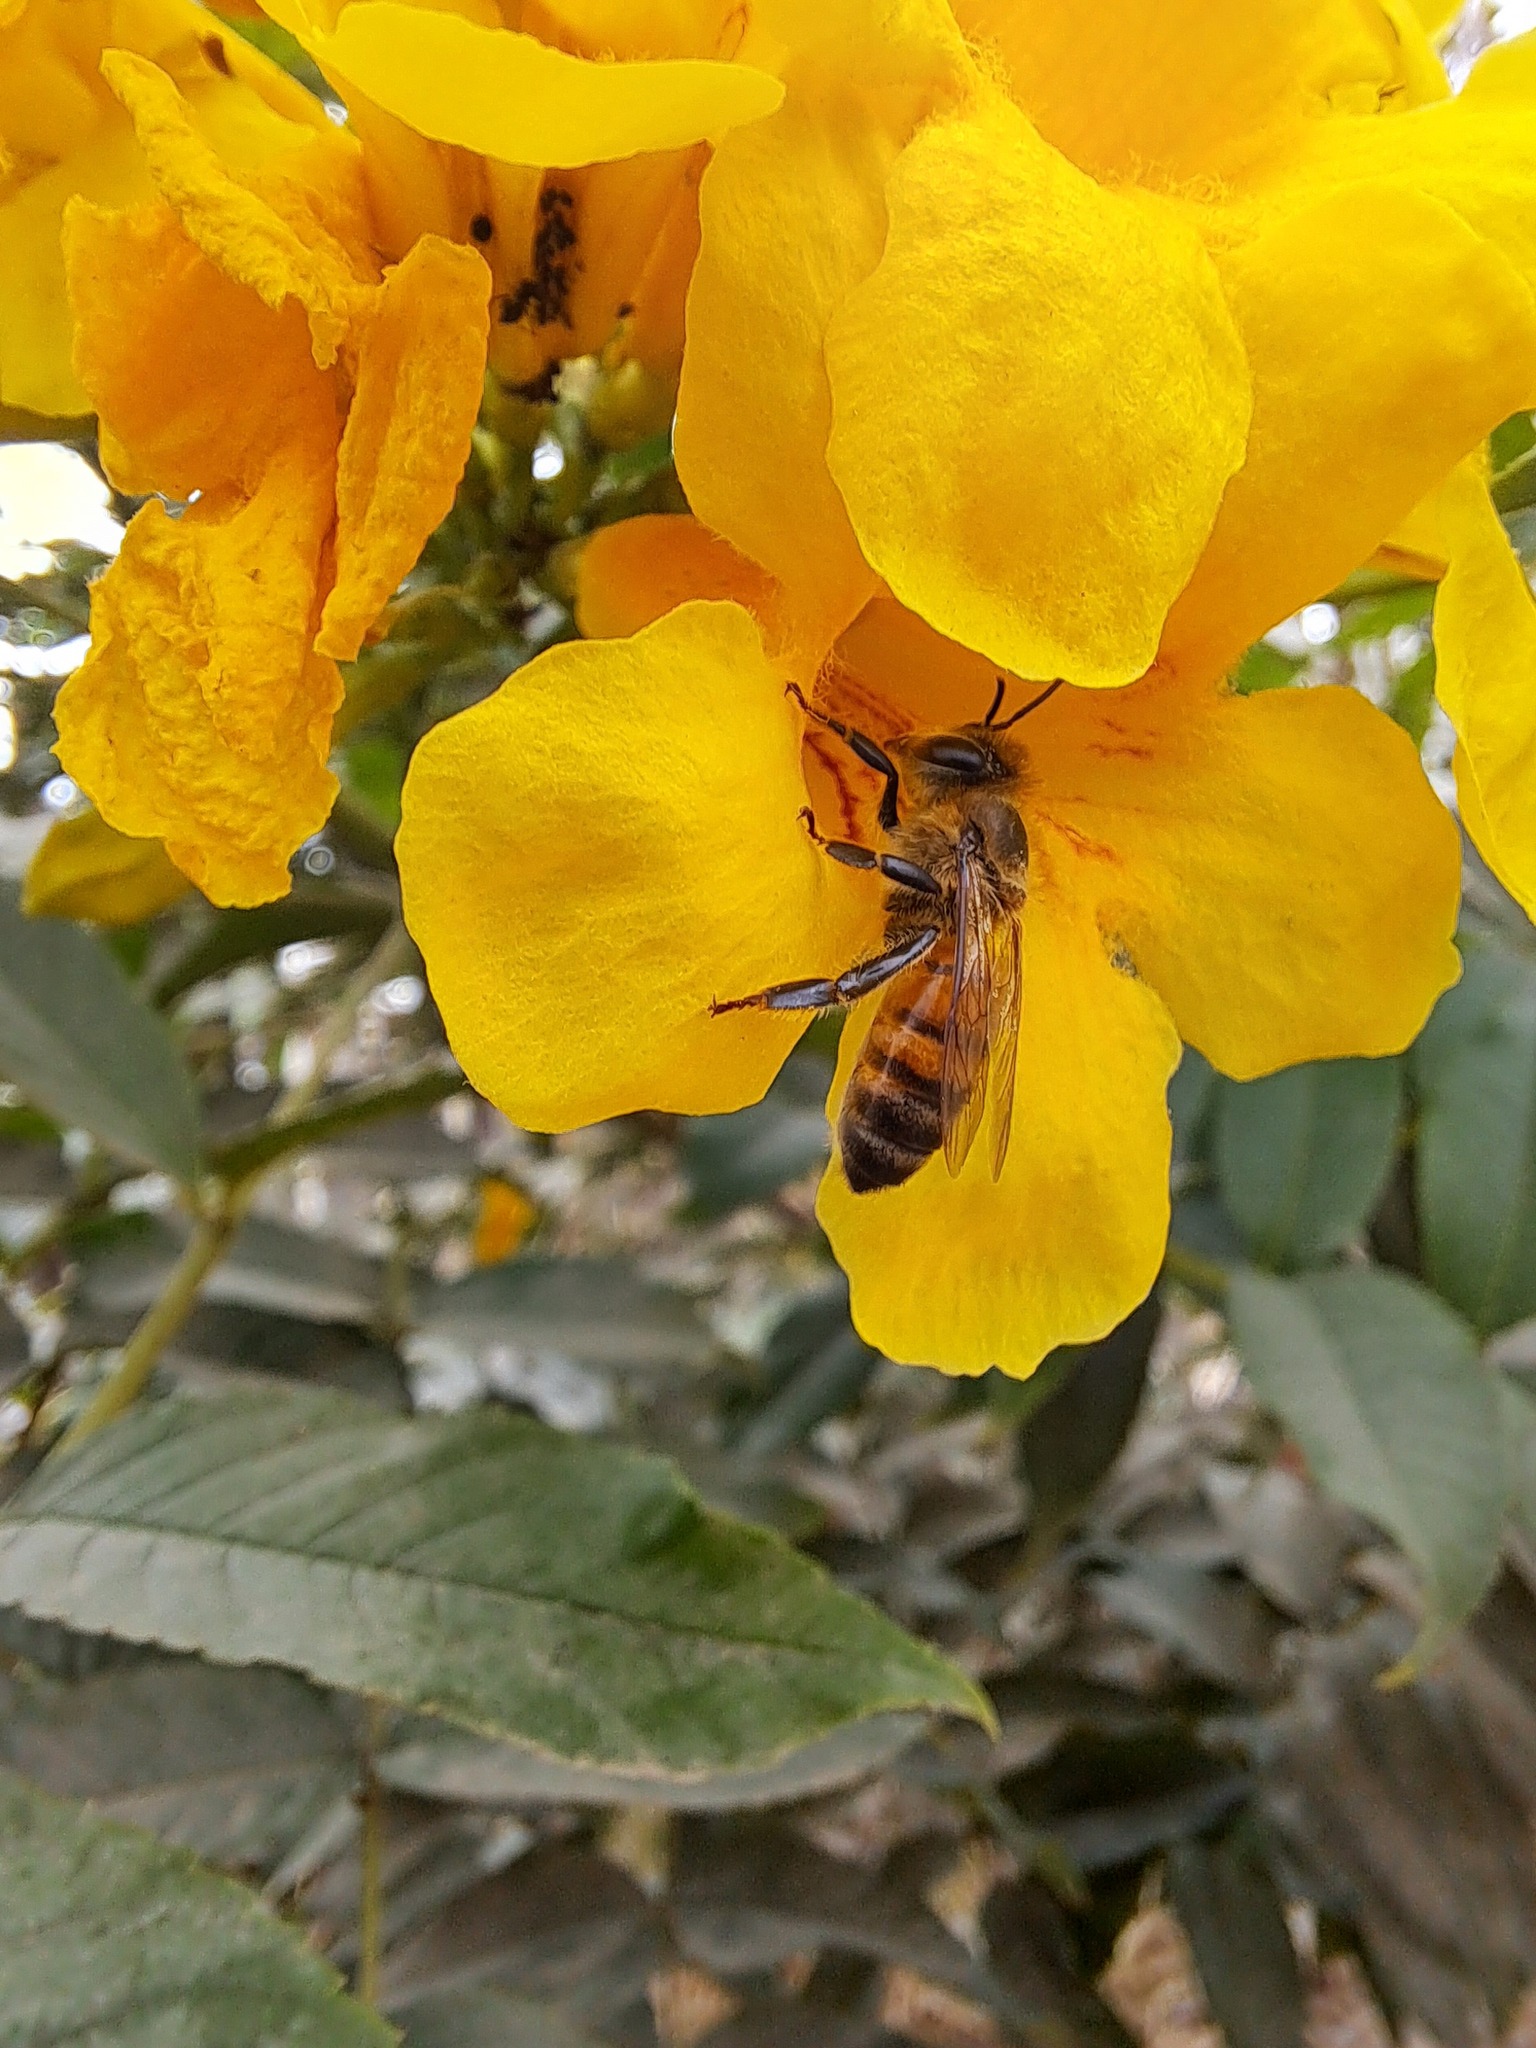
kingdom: Animalia
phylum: Arthropoda
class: Insecta
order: Hymenoptera
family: Apidae
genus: Apis
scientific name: Apis mellifera
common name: Honey bee
